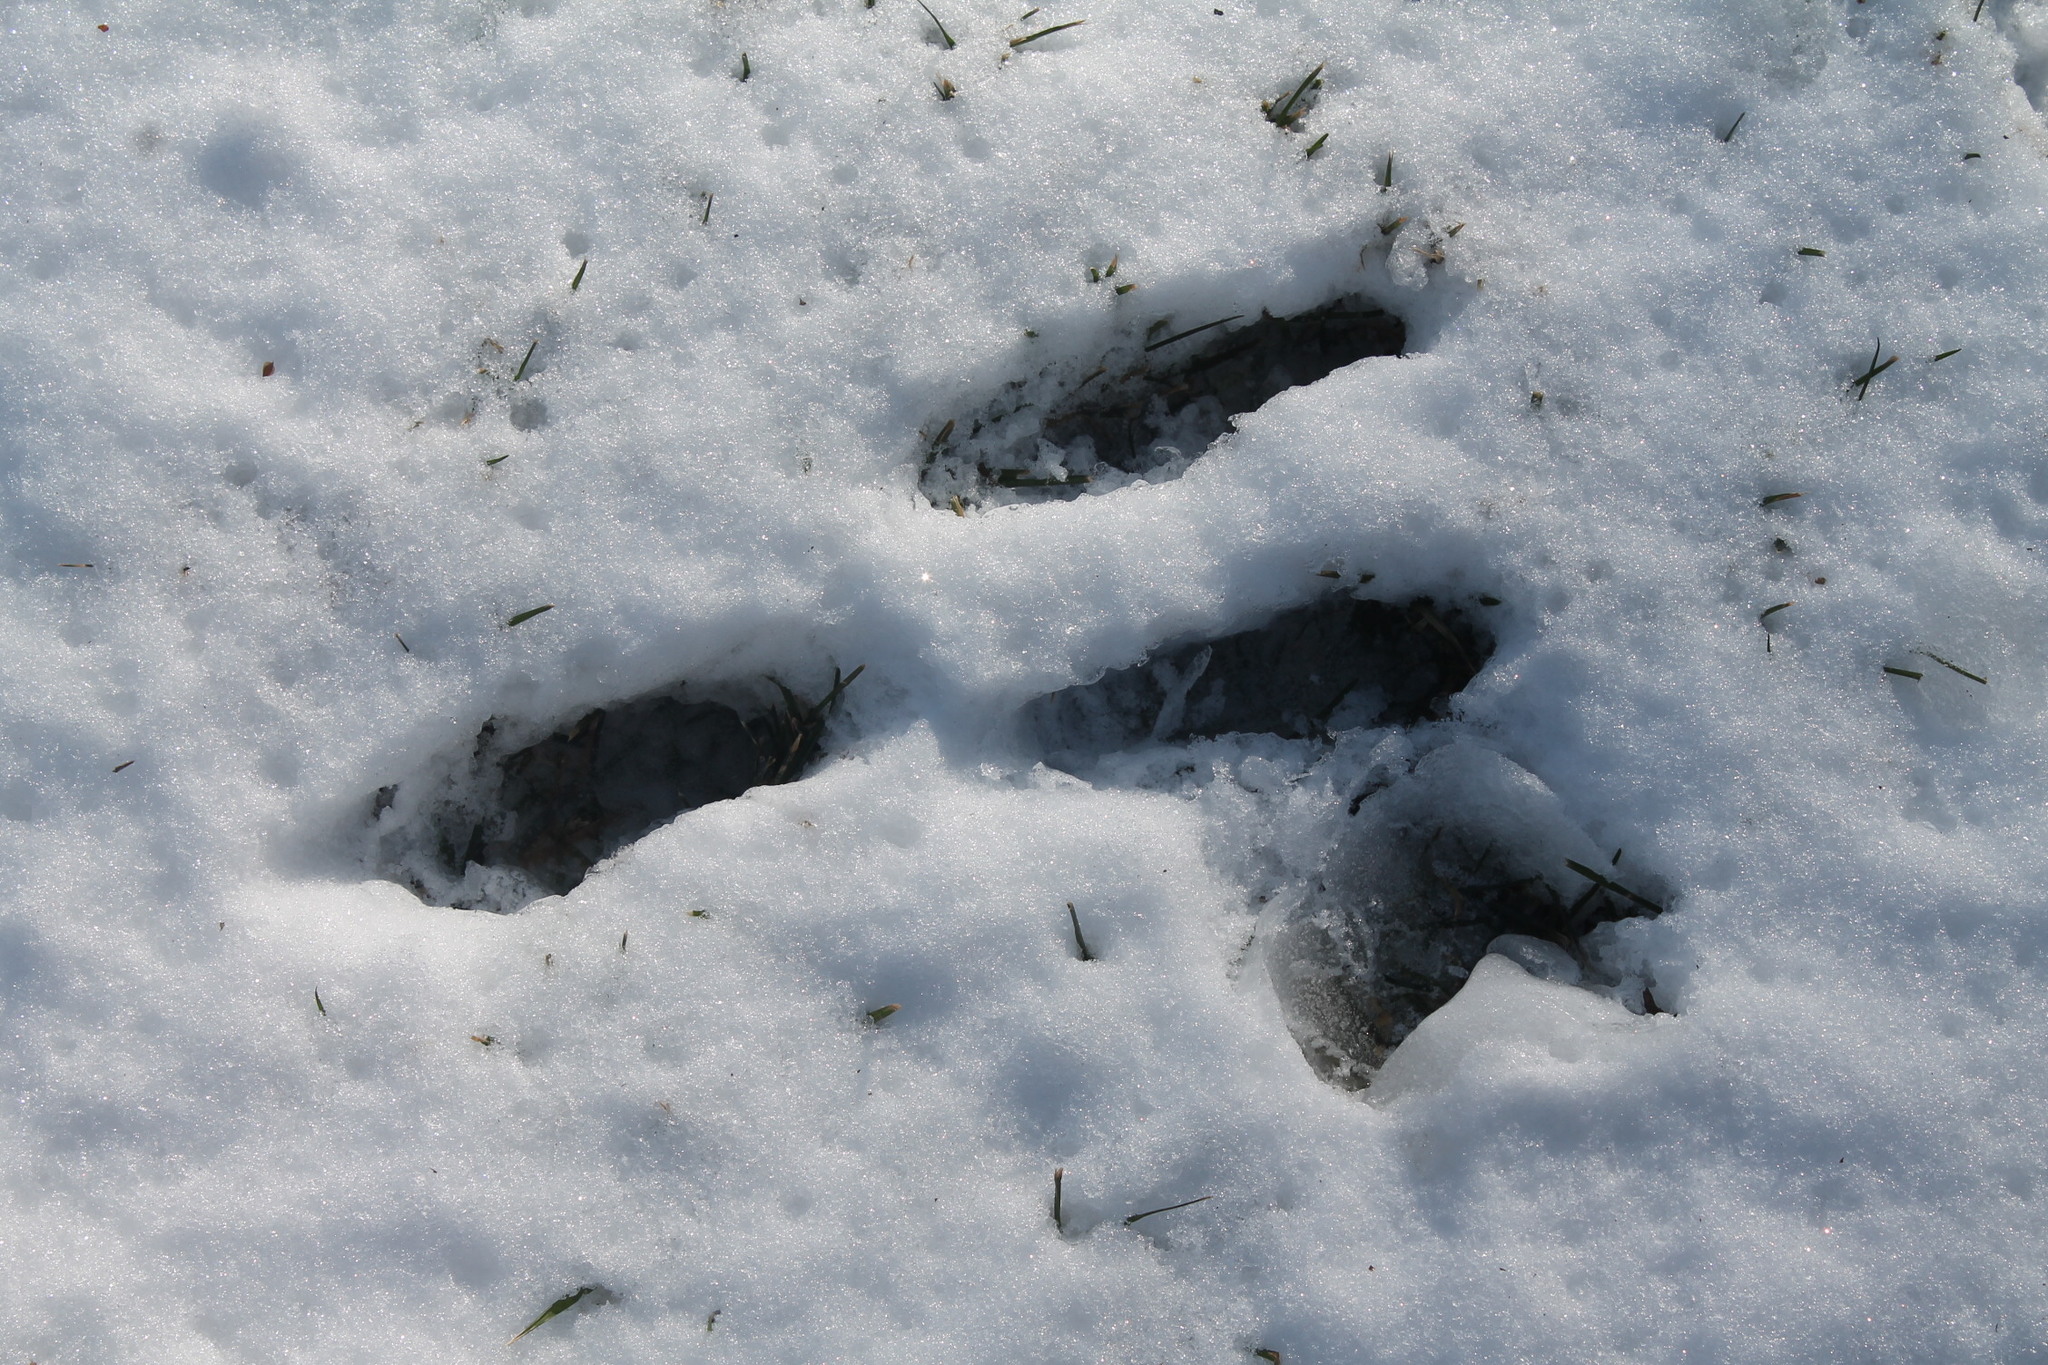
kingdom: Animalia
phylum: Chordata
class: Mammalia
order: Lagomorpha
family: Leporidae
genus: Sylvilagus
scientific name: Sylvilagus floridanus
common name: Eastern cottontail
